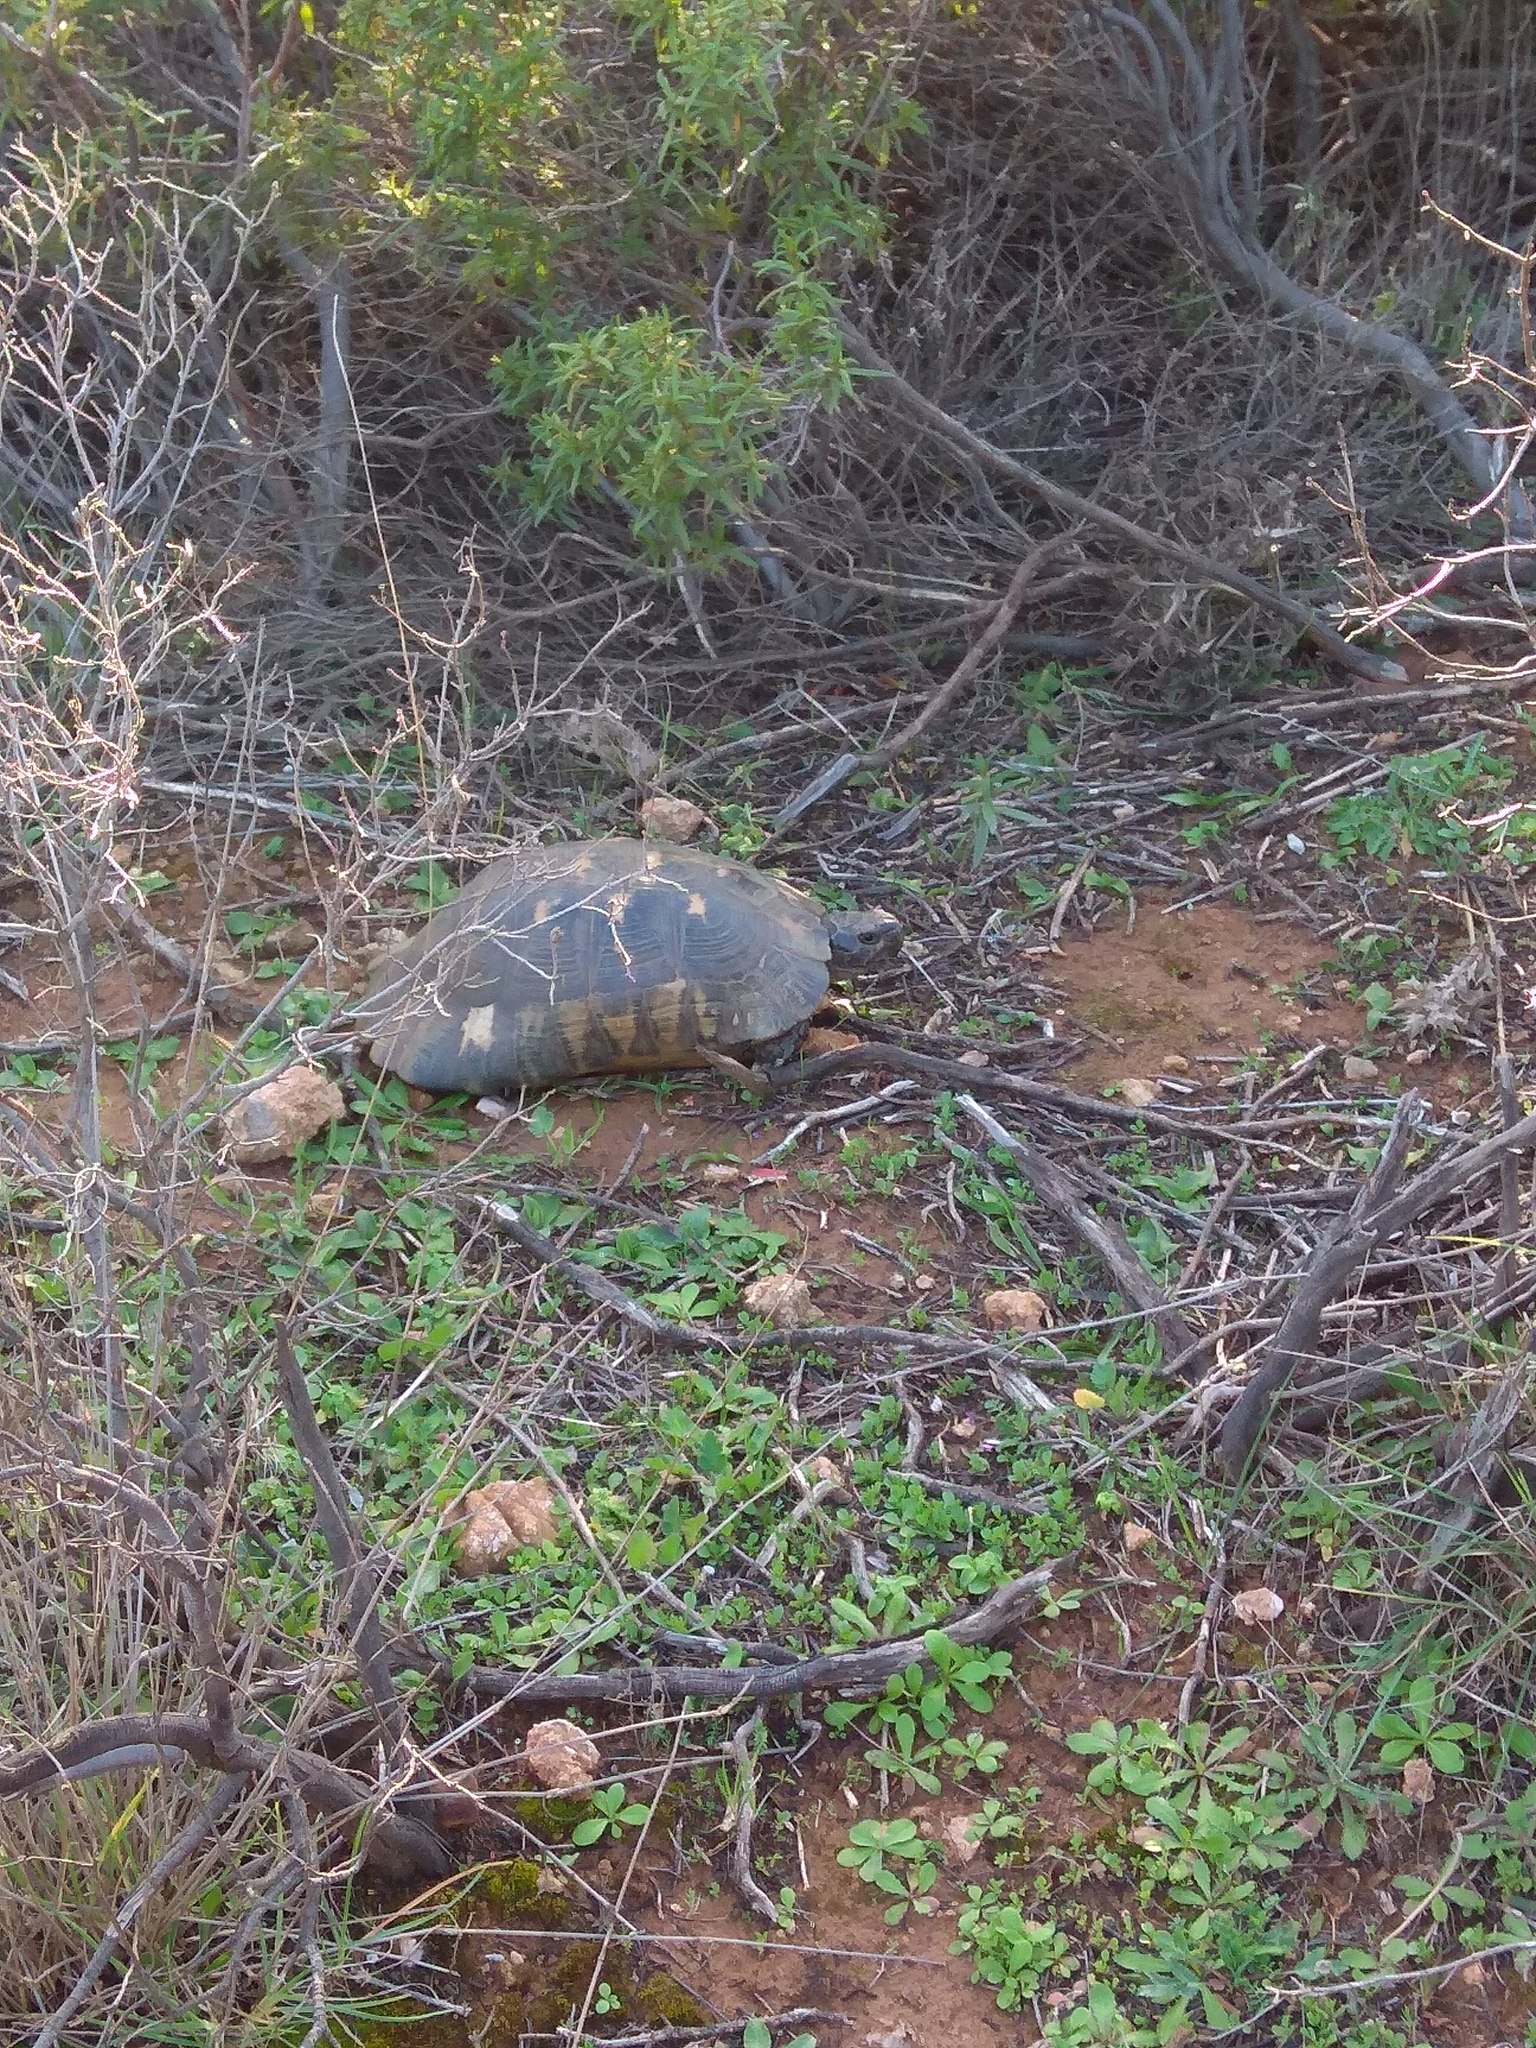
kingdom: Animalia
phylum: Chordata
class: Testudines
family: Testudinidae
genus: Testudo
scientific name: Testudo marginata
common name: Marginated tortoise
